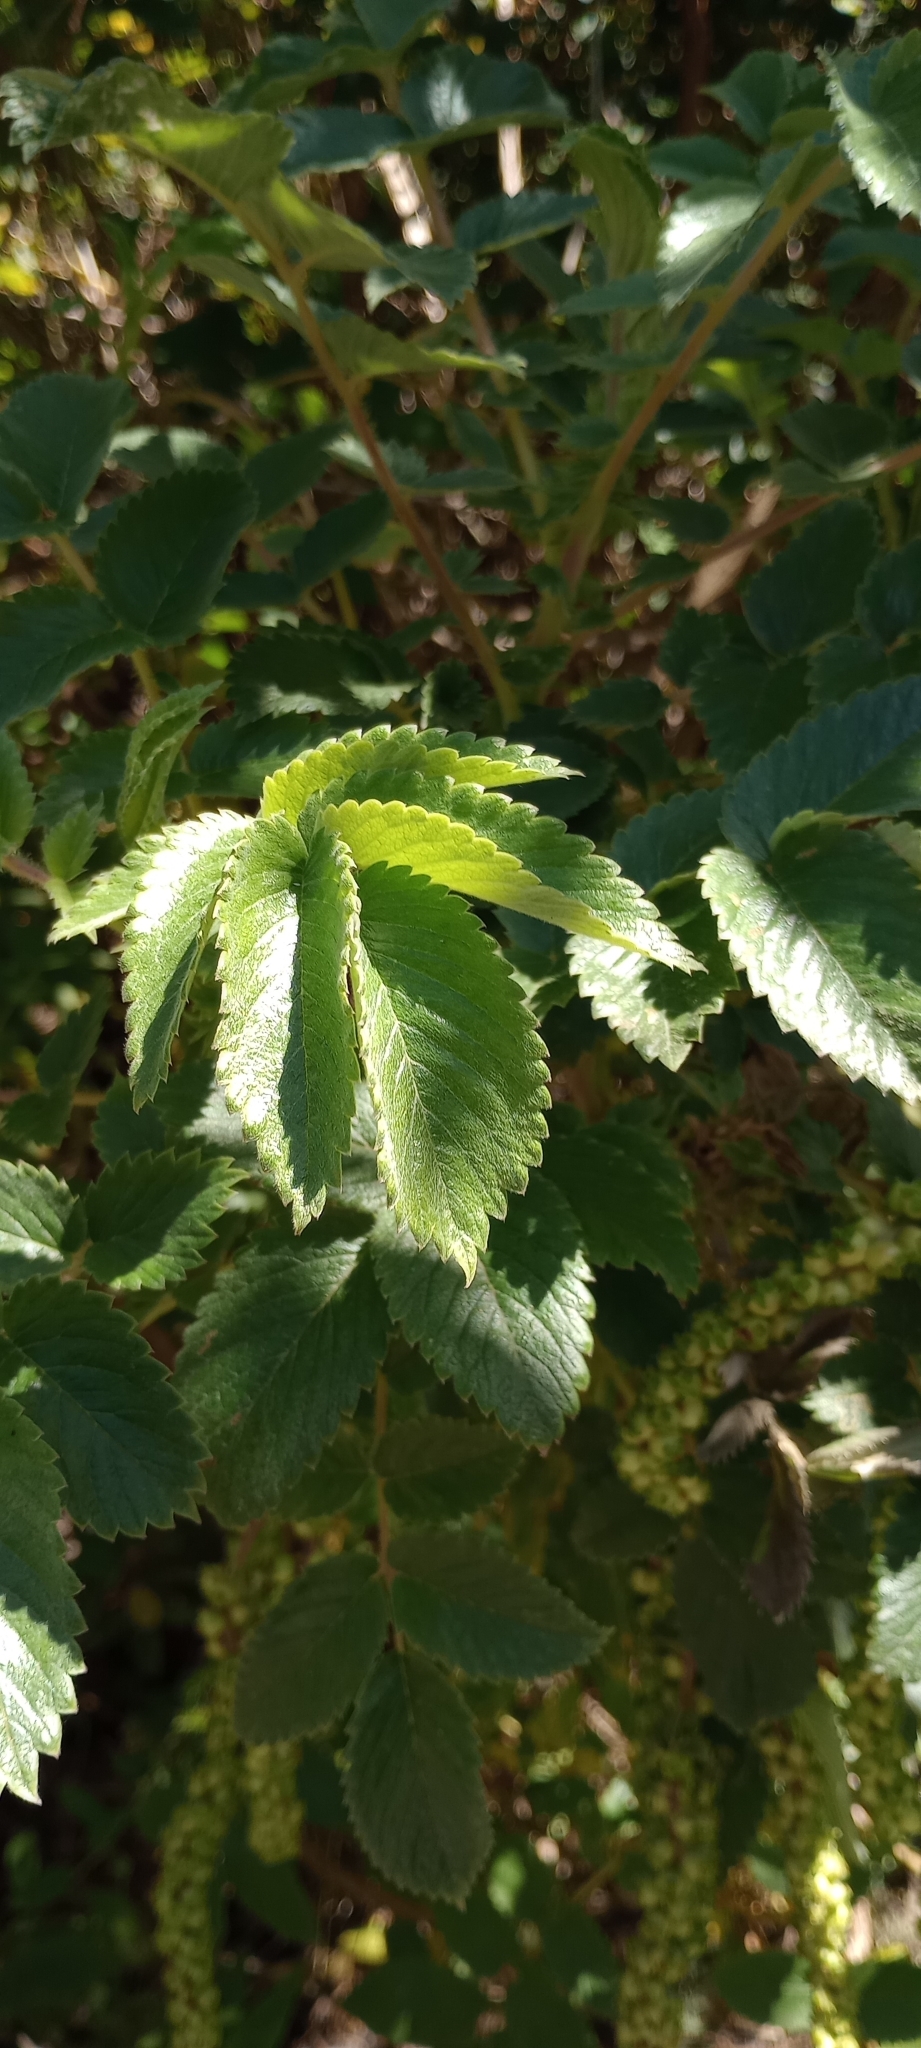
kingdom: Plantae
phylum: Tracheophyta
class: Magnoliopsida
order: Rosales
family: Rosaceae
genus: Bencomia
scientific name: Bencomia caudata
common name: Bencomia
